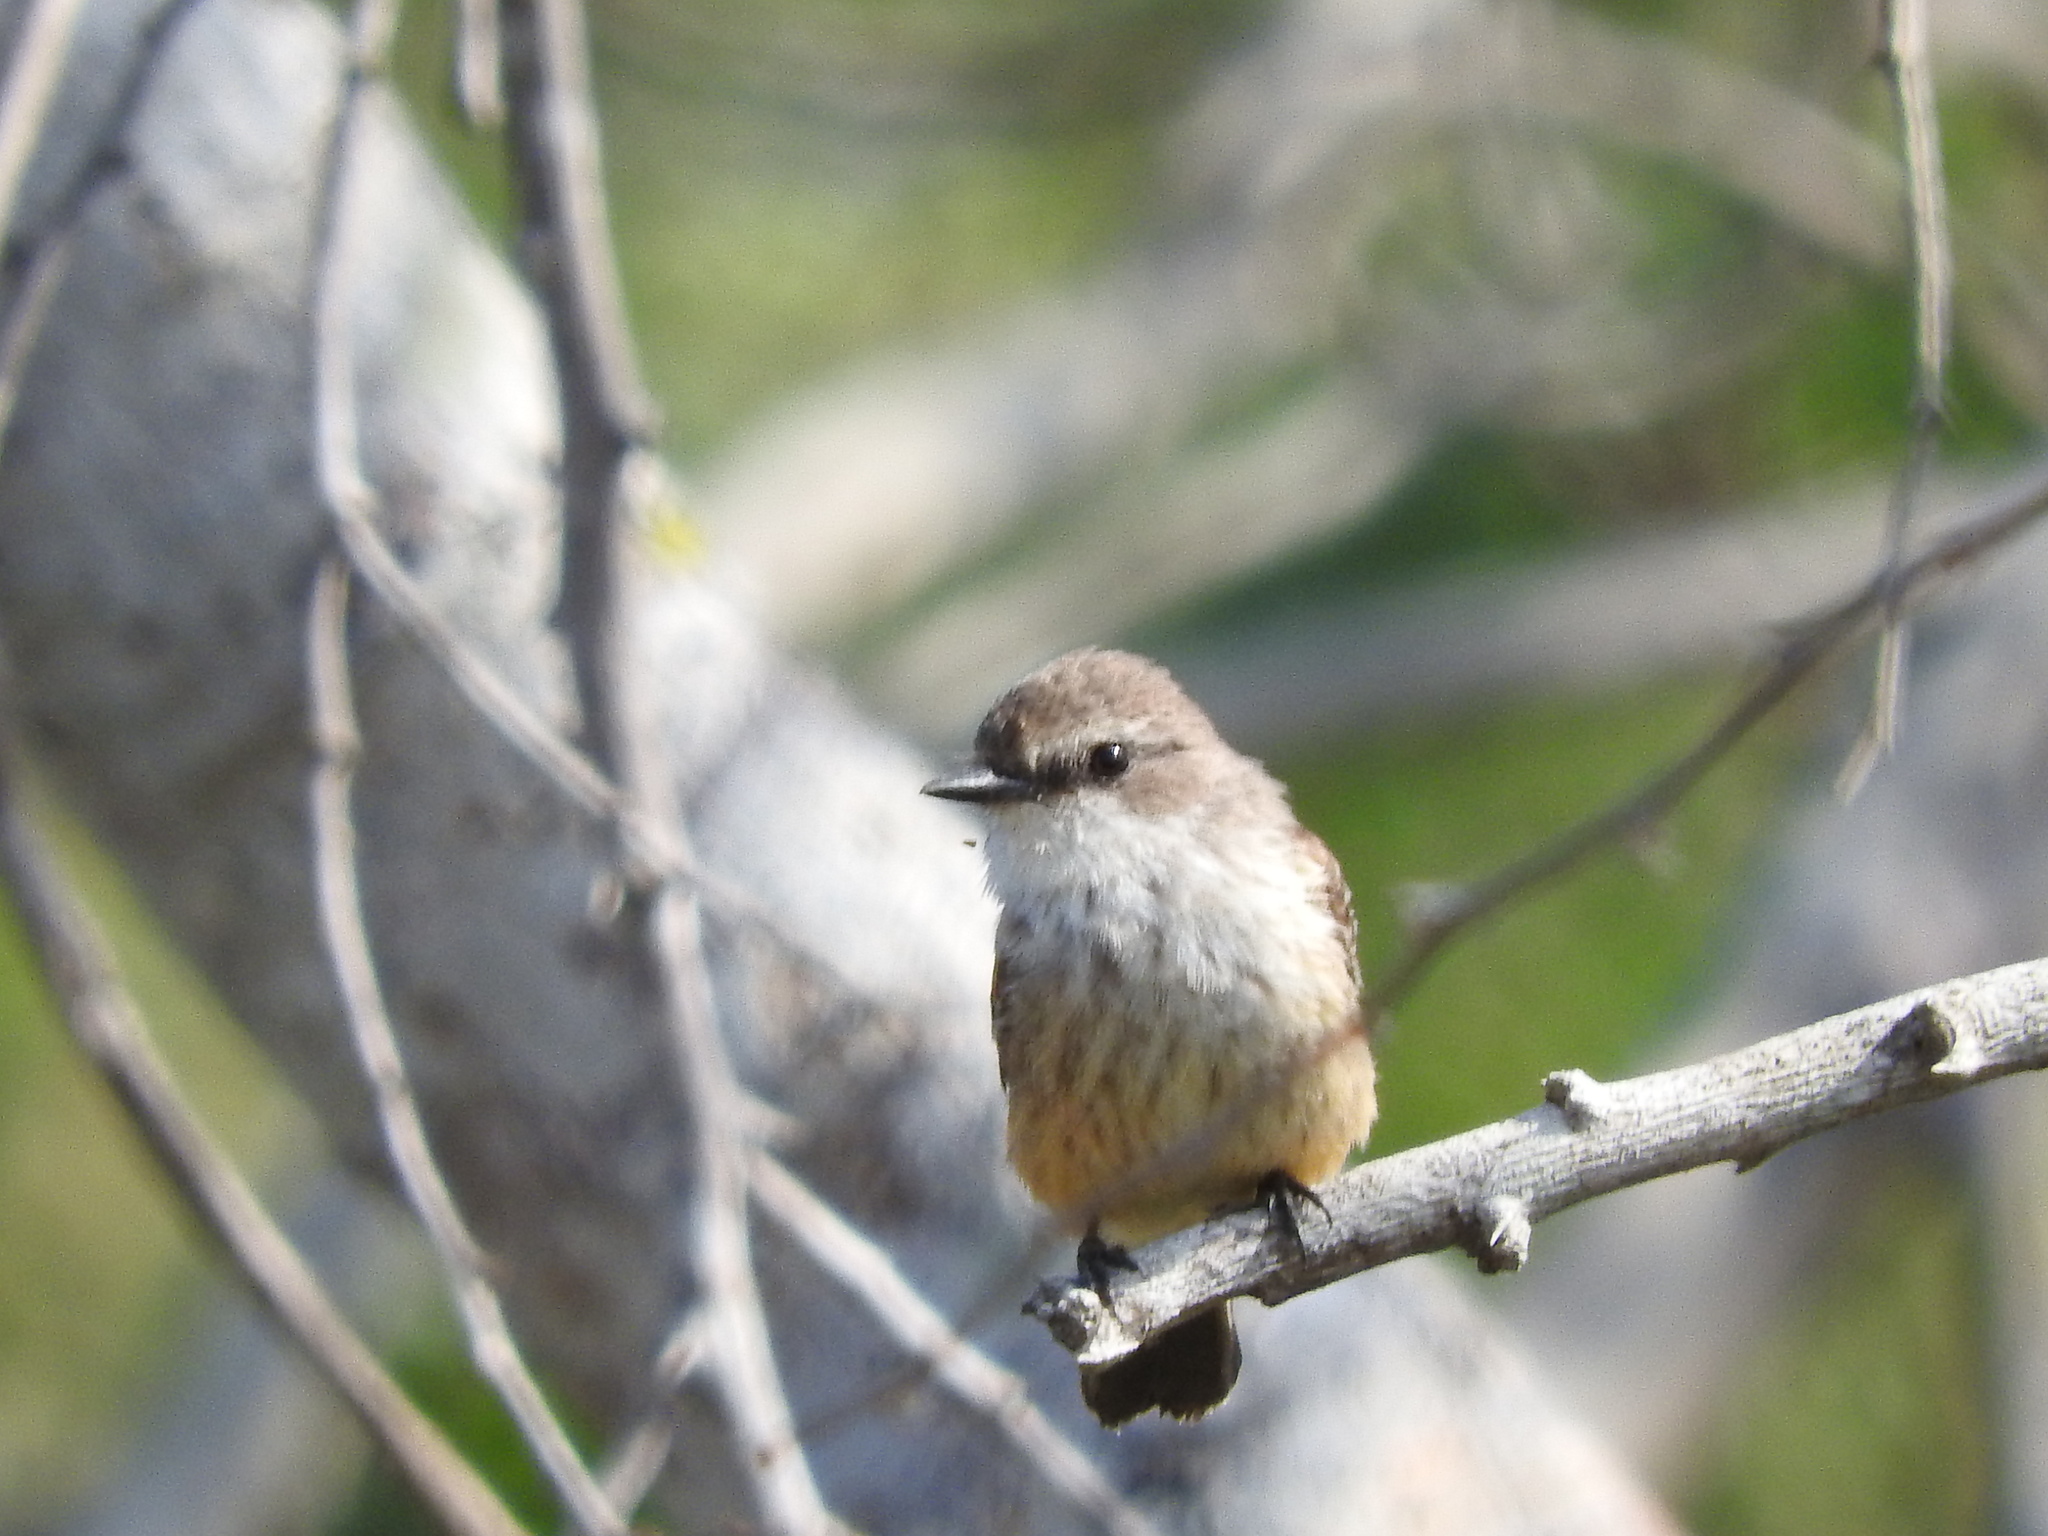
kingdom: Animalia
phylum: Chordata
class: Aves
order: Passeriformes
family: Tyrannidae
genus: Pyrocephalus
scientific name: Pyrocephalus rubinus
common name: Vermilion flycatcher
